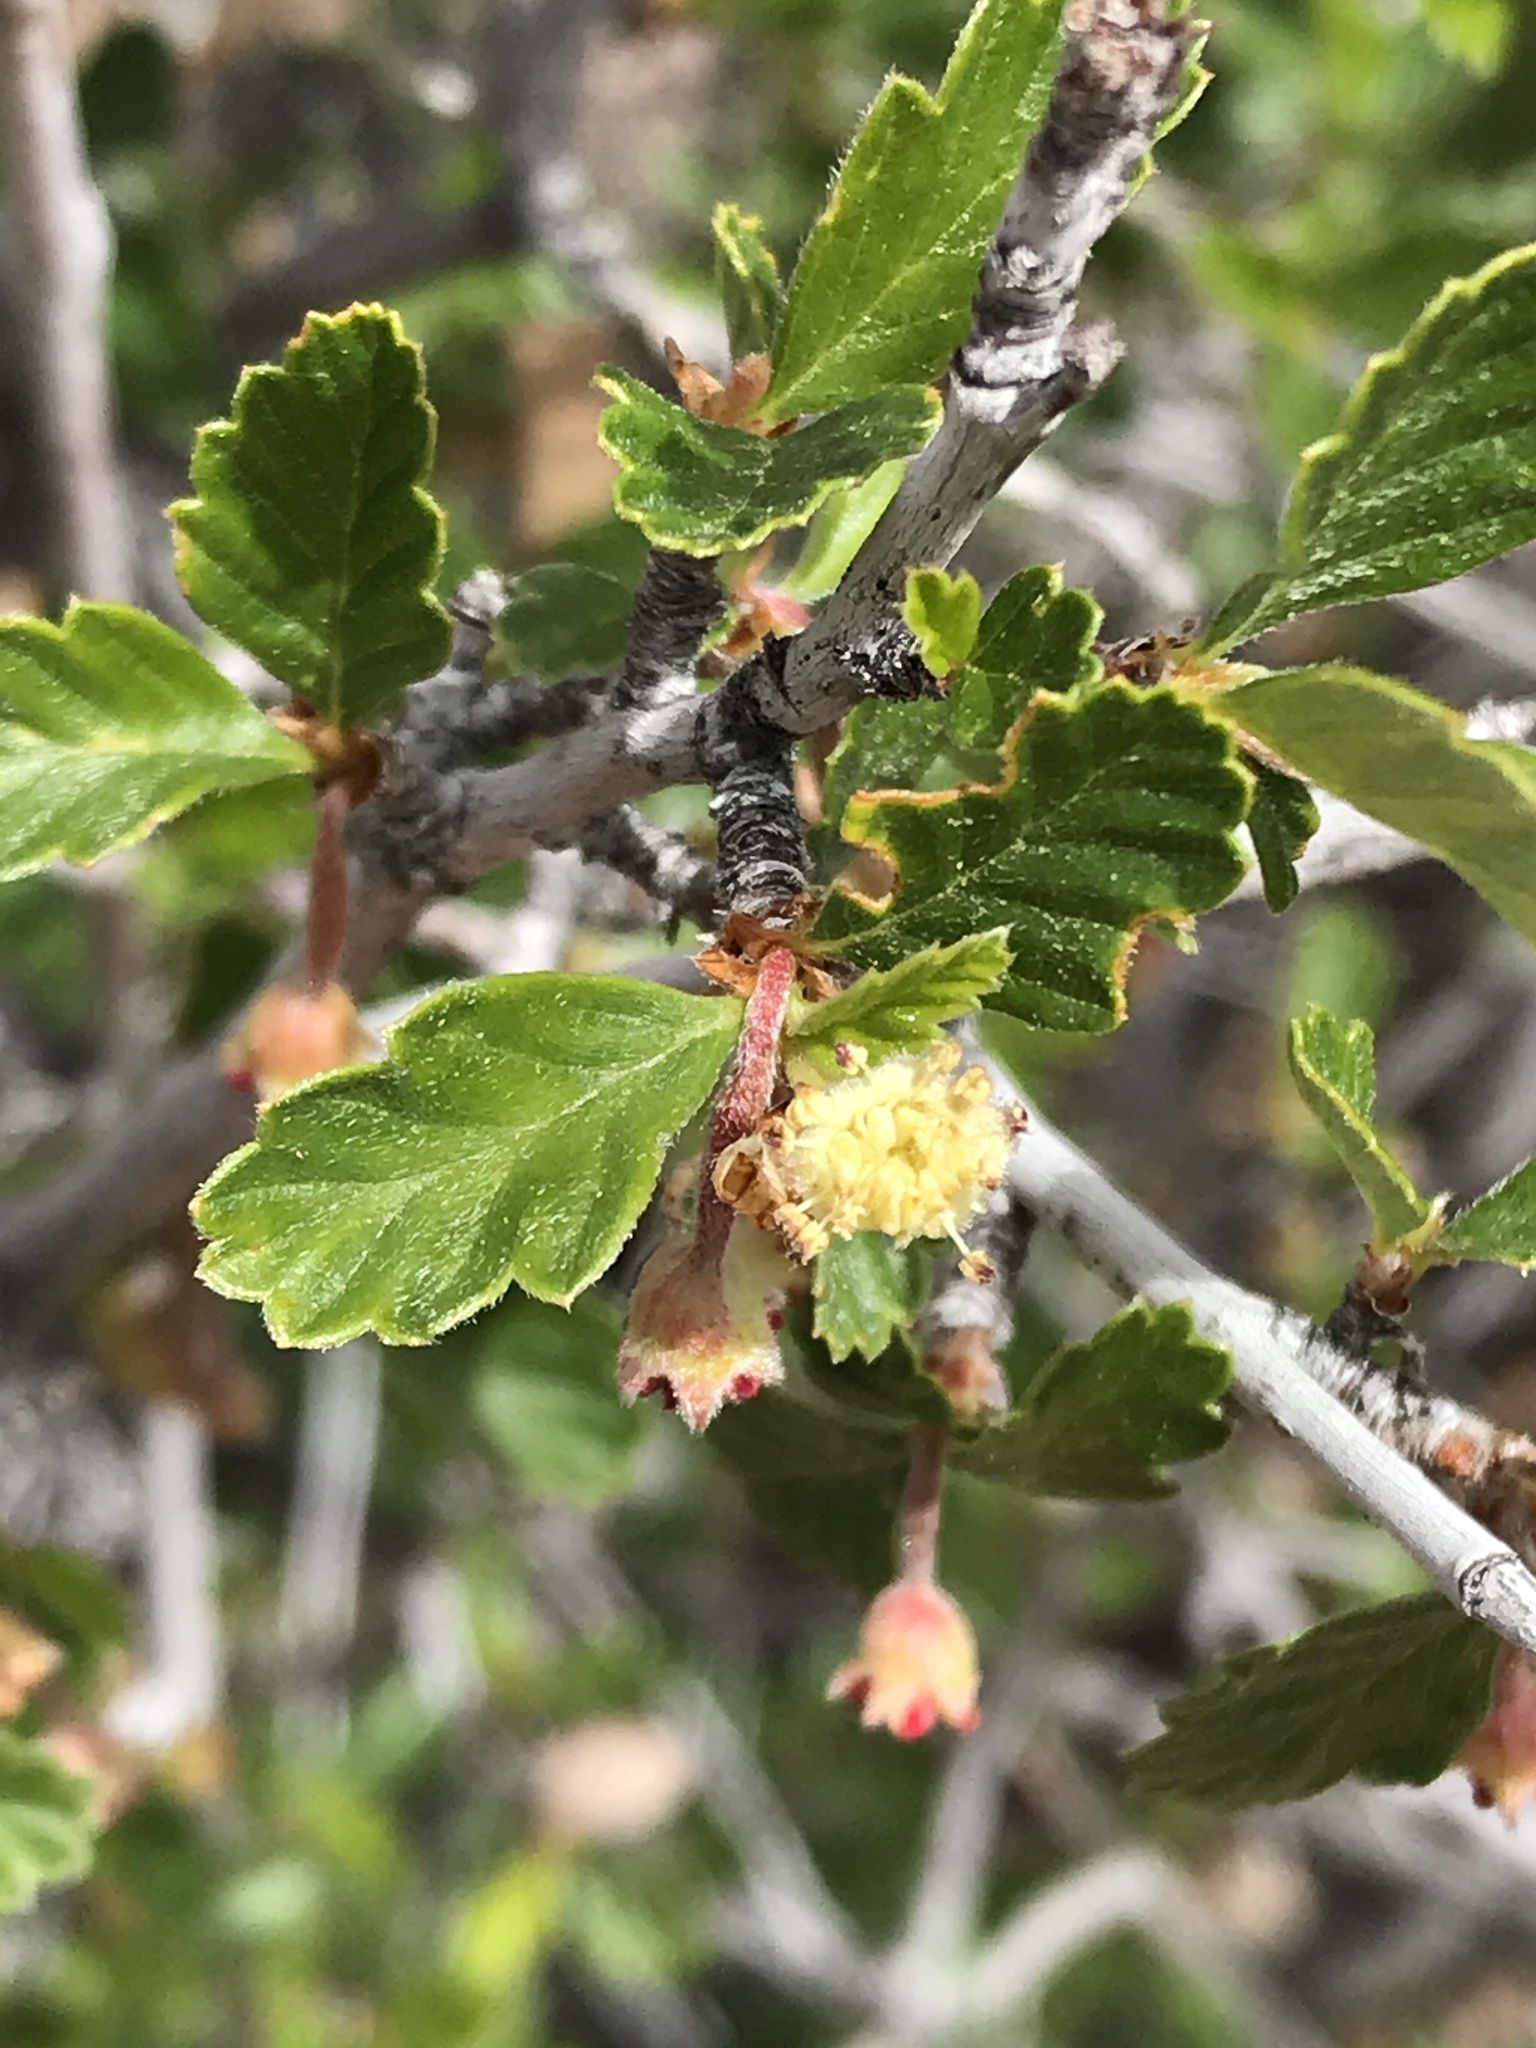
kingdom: Plantae
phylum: Tracheophyta
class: Magnoliopsida
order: Rosales
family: Rosaceae
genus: Cercocarpus
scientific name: Cercocarpus montanus
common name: Alder-leaf cercocarpus
